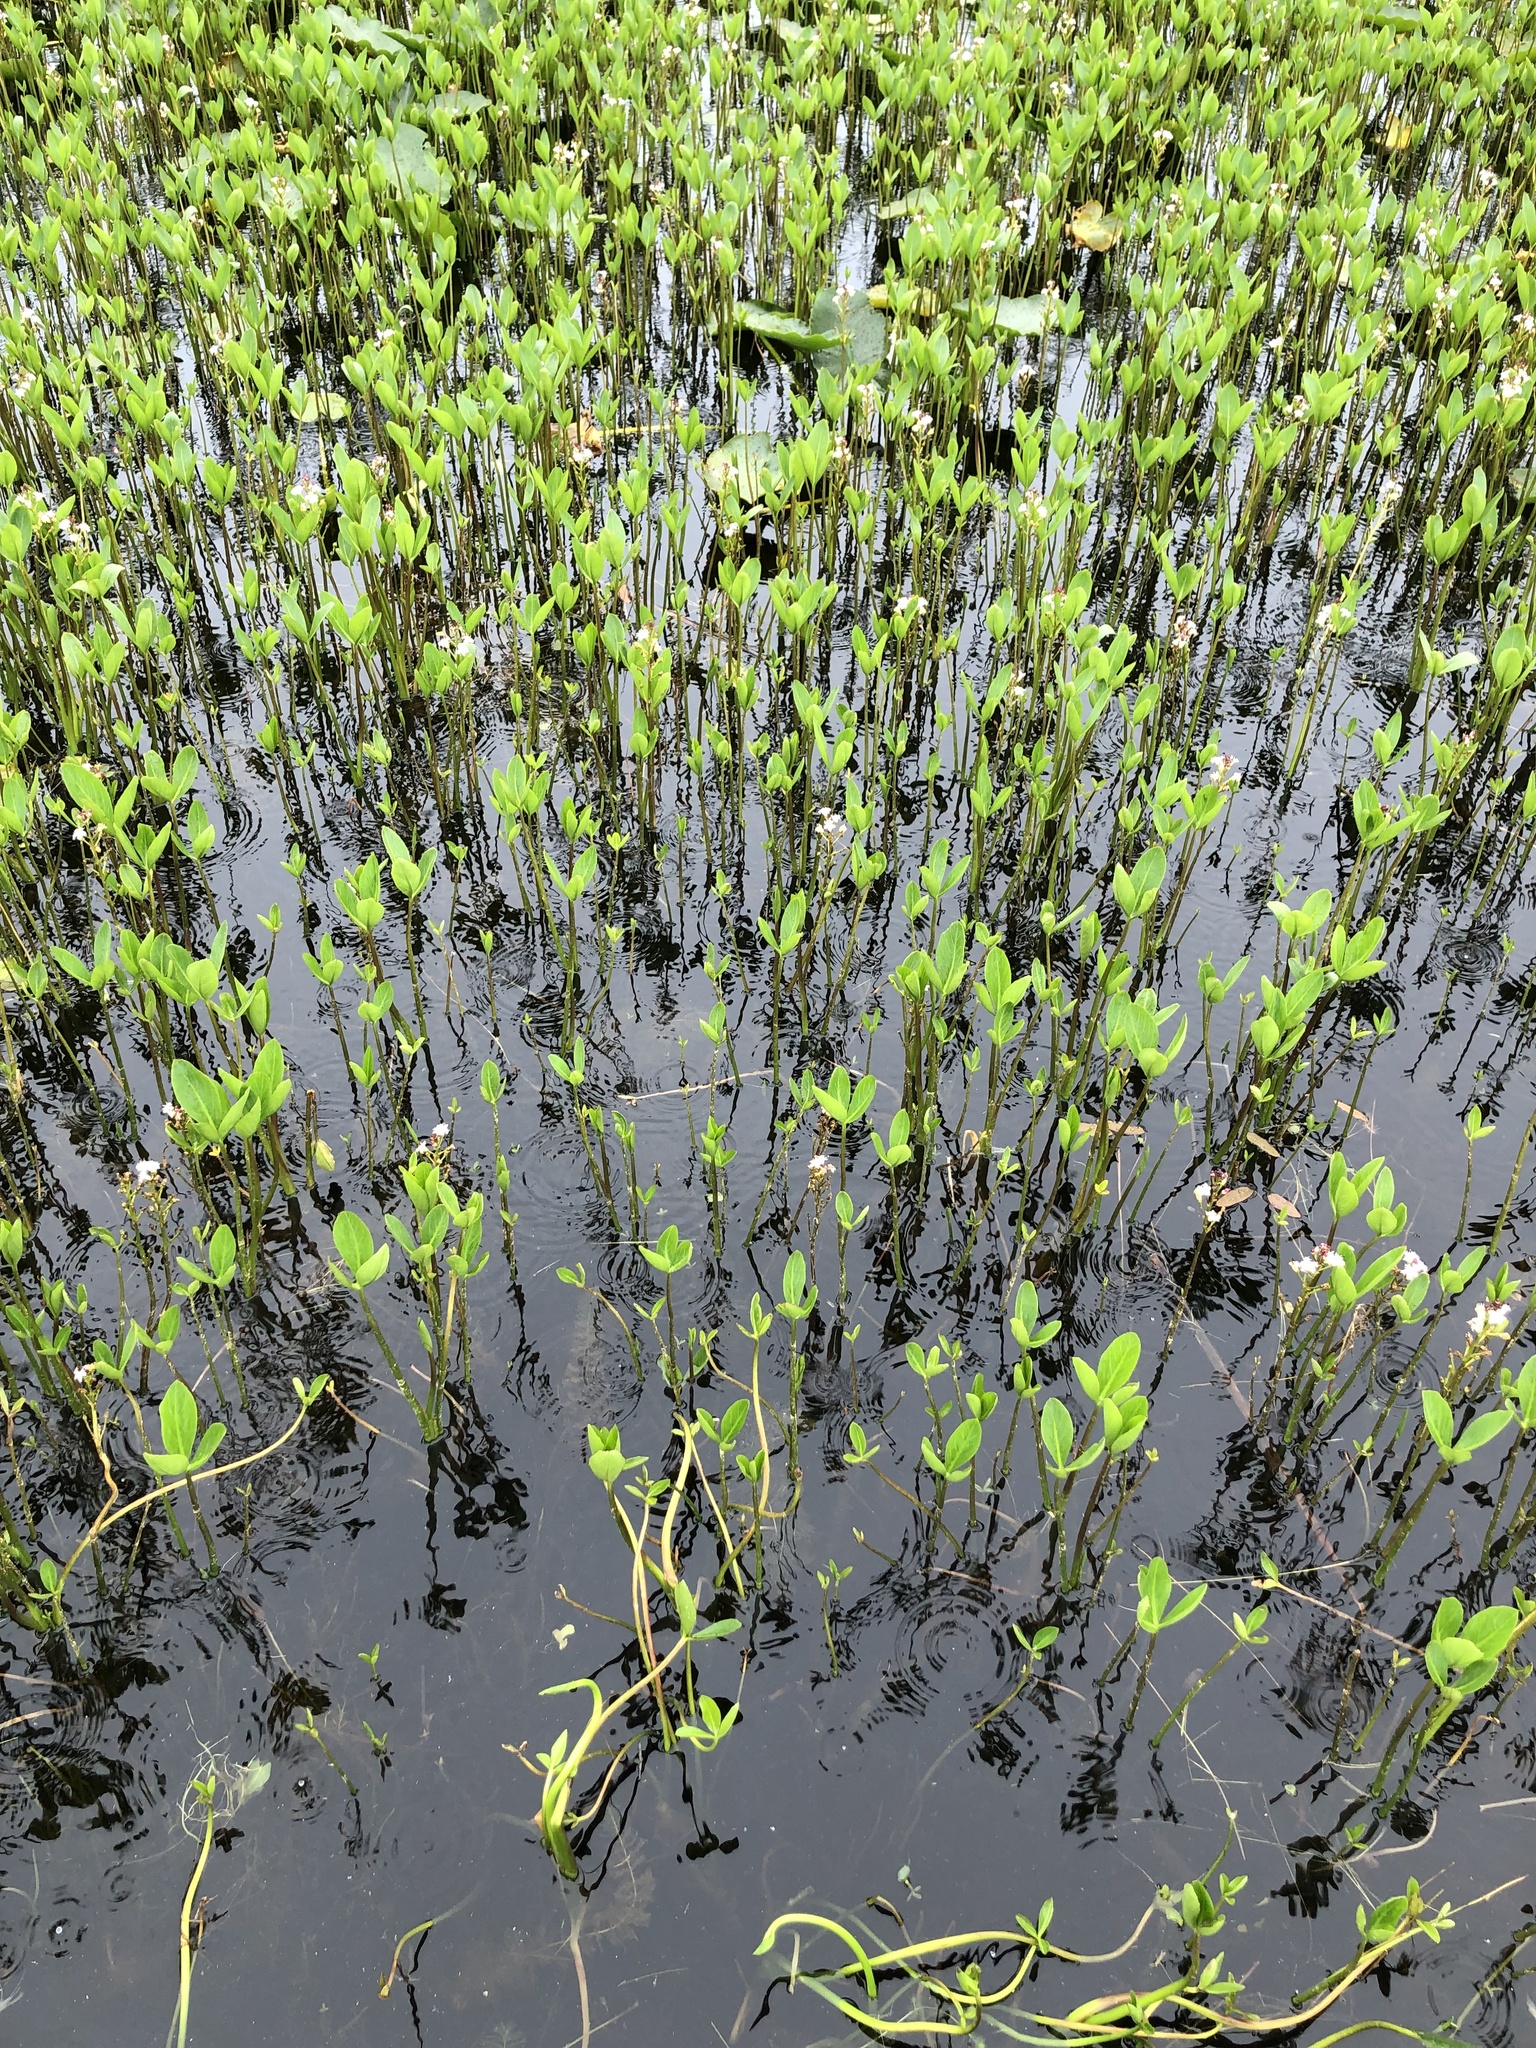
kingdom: Plantae
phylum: Tracheophyta
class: Magnoliopsida
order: Asterales
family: Menyanthaceae
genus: Menyanthes
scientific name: Menyanthes trifoliata
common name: Bogbean
